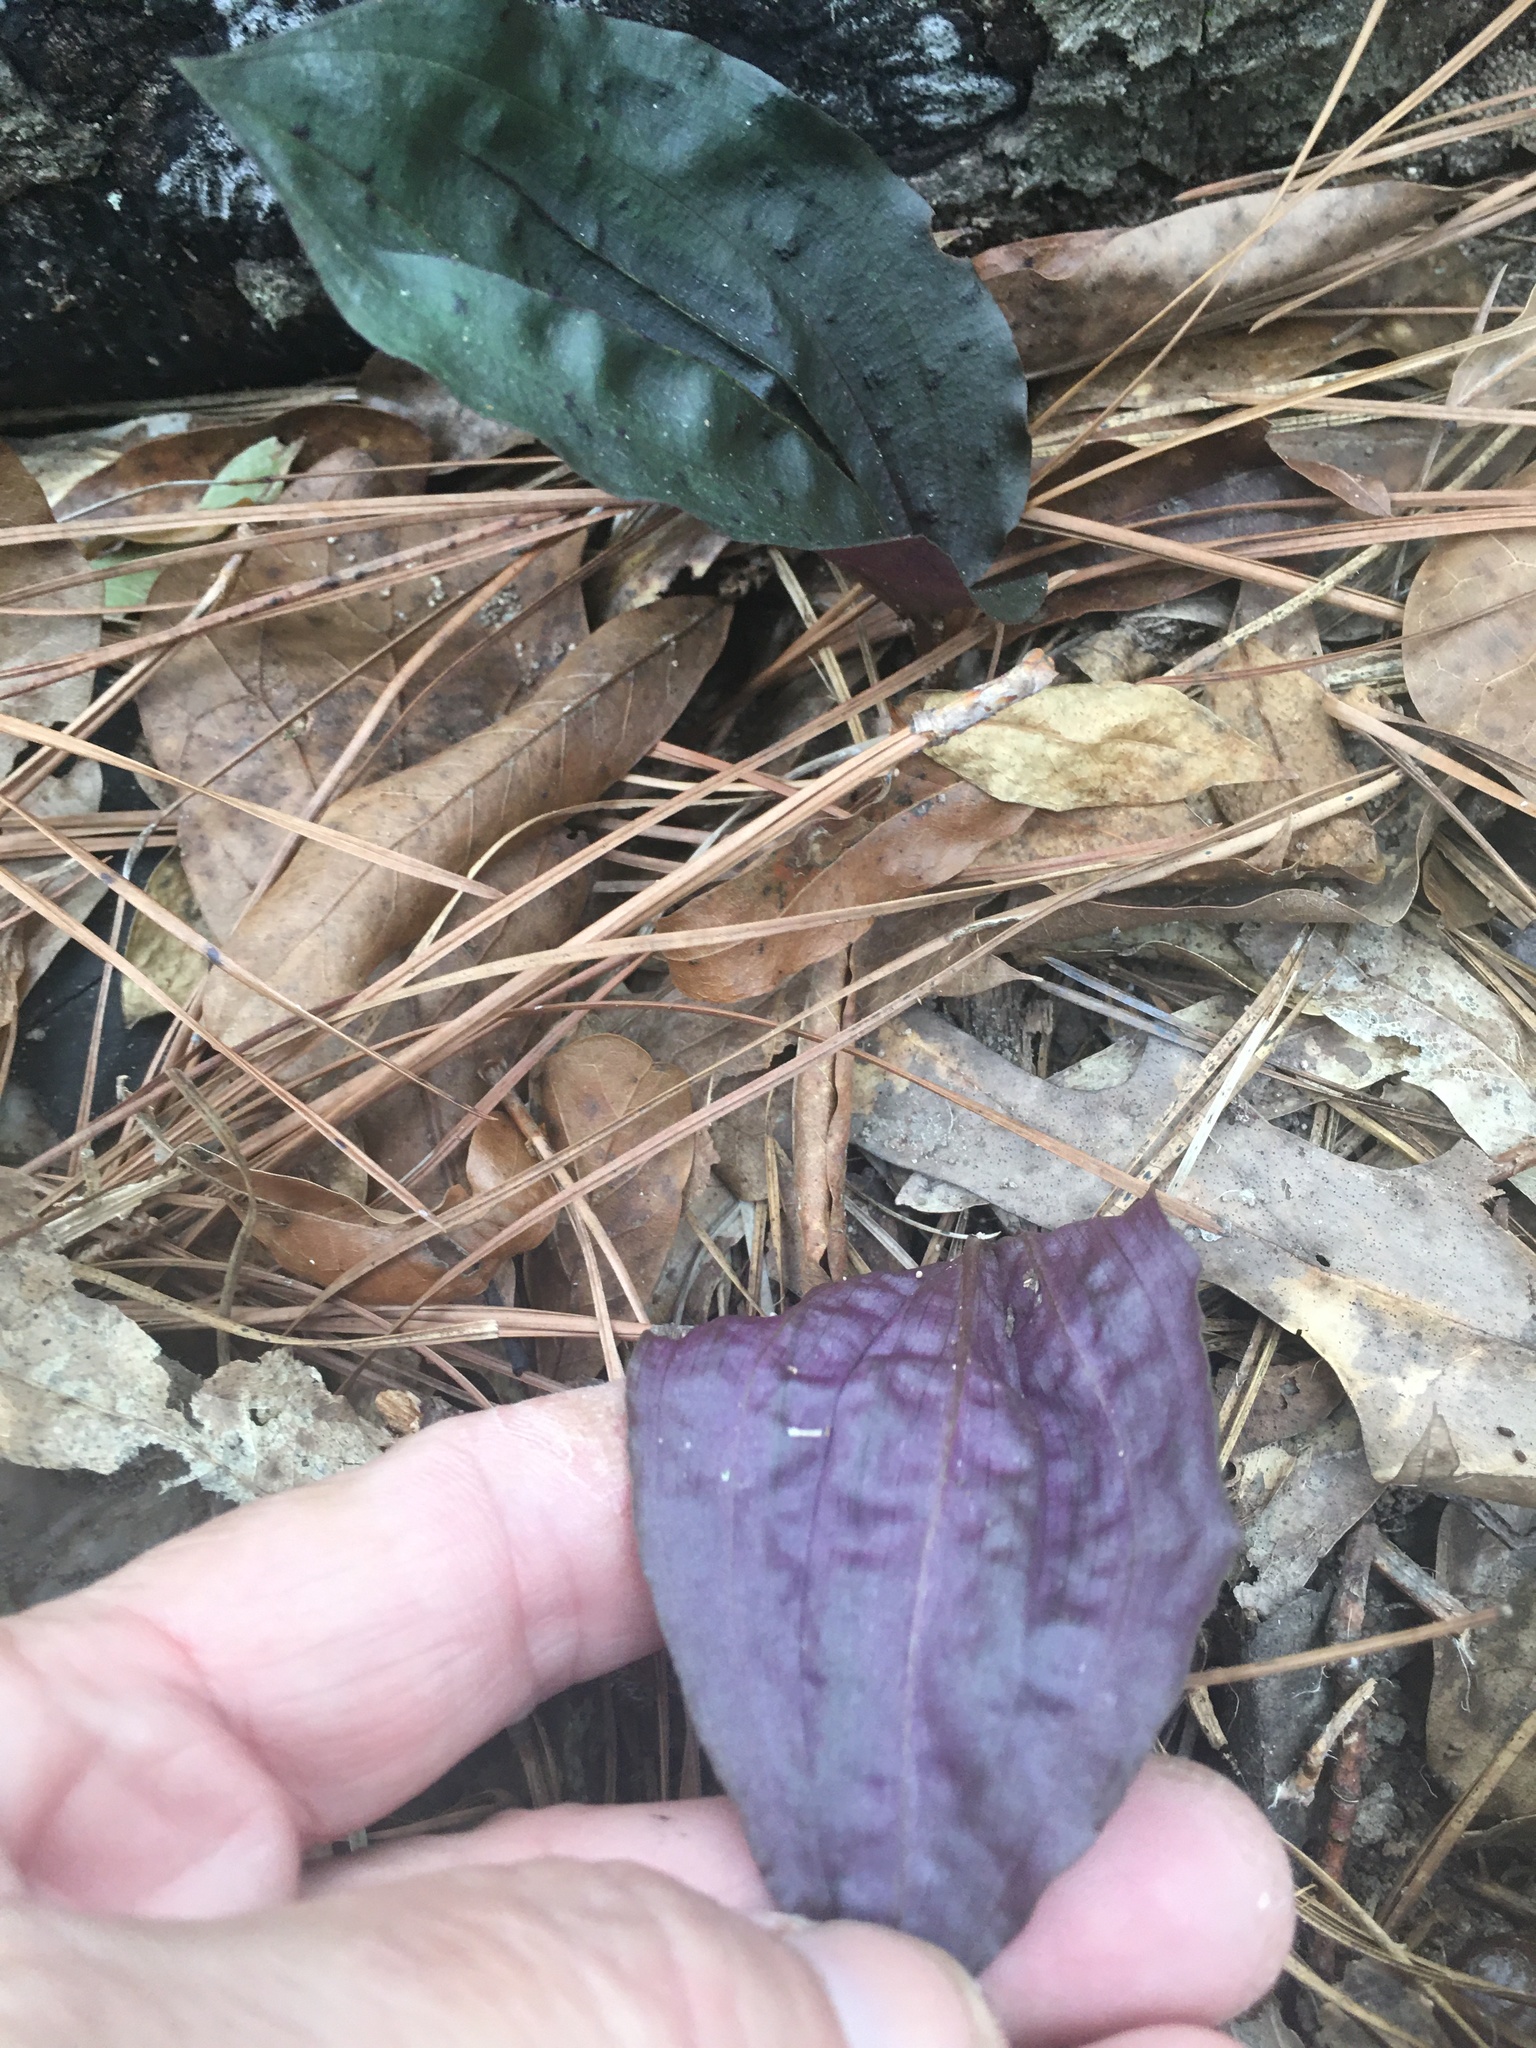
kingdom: Plantae
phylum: Tracheophyta
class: Liliopsida
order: Asparagales
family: Orchidaceae
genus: Tipularia
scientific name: Tipularia discolor
